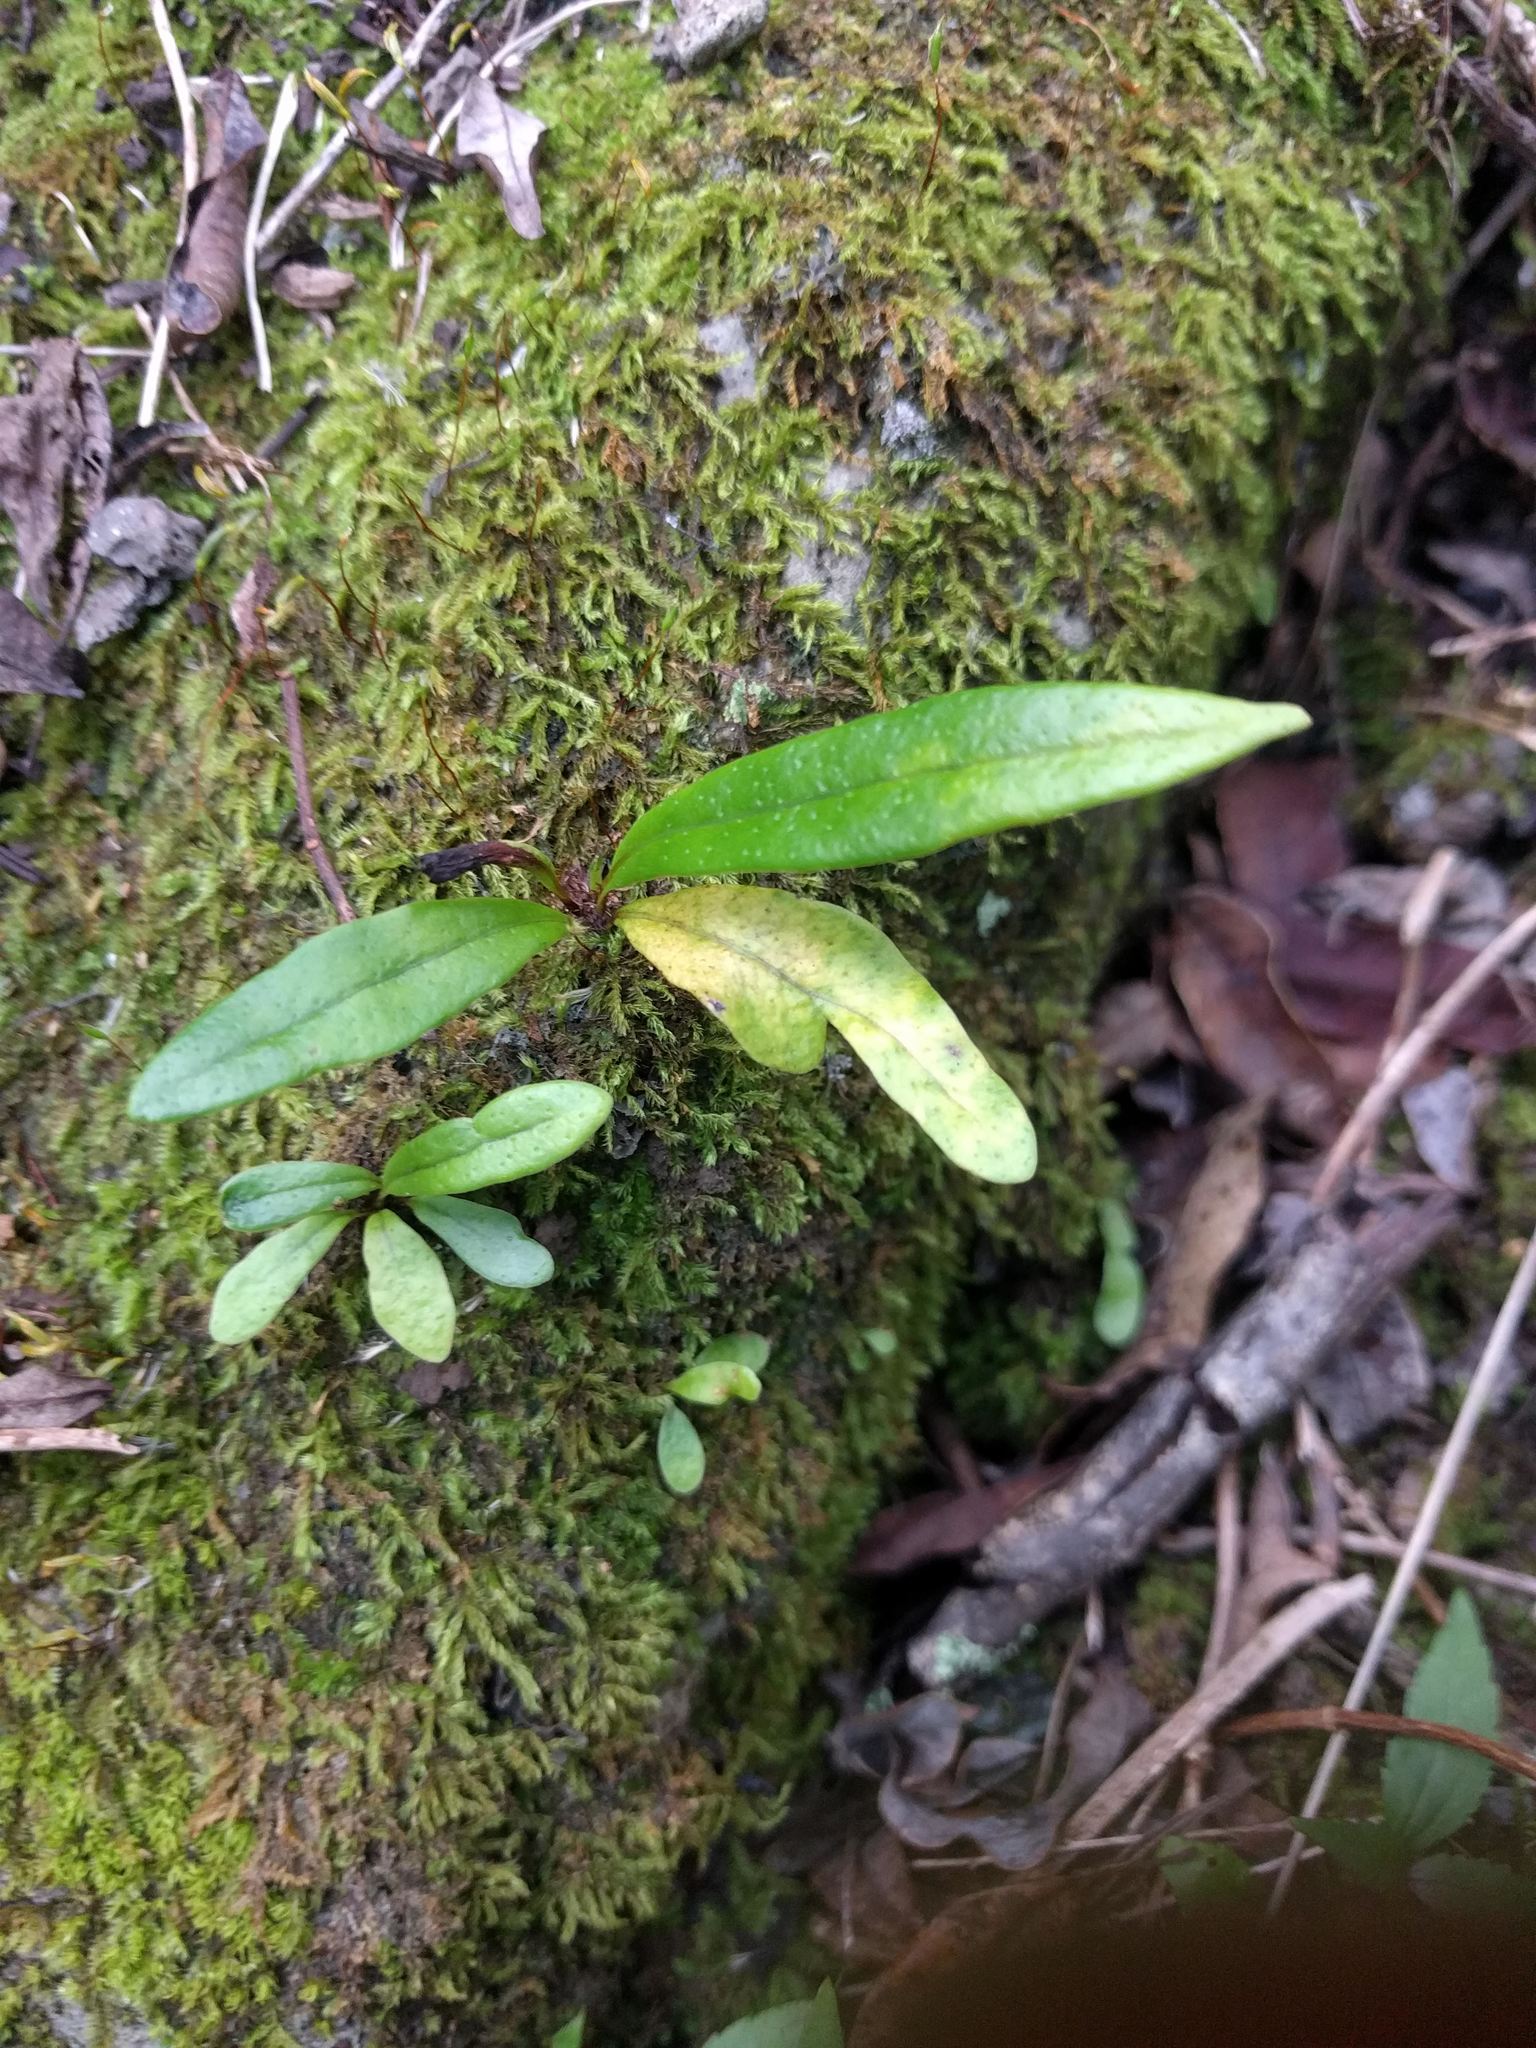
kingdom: Plantae
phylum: Tracheophyta
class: Polypodiopsida
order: Polypodiales
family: Polypodiaceae
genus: Lepisorus
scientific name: Lepisorus thunbergianus
